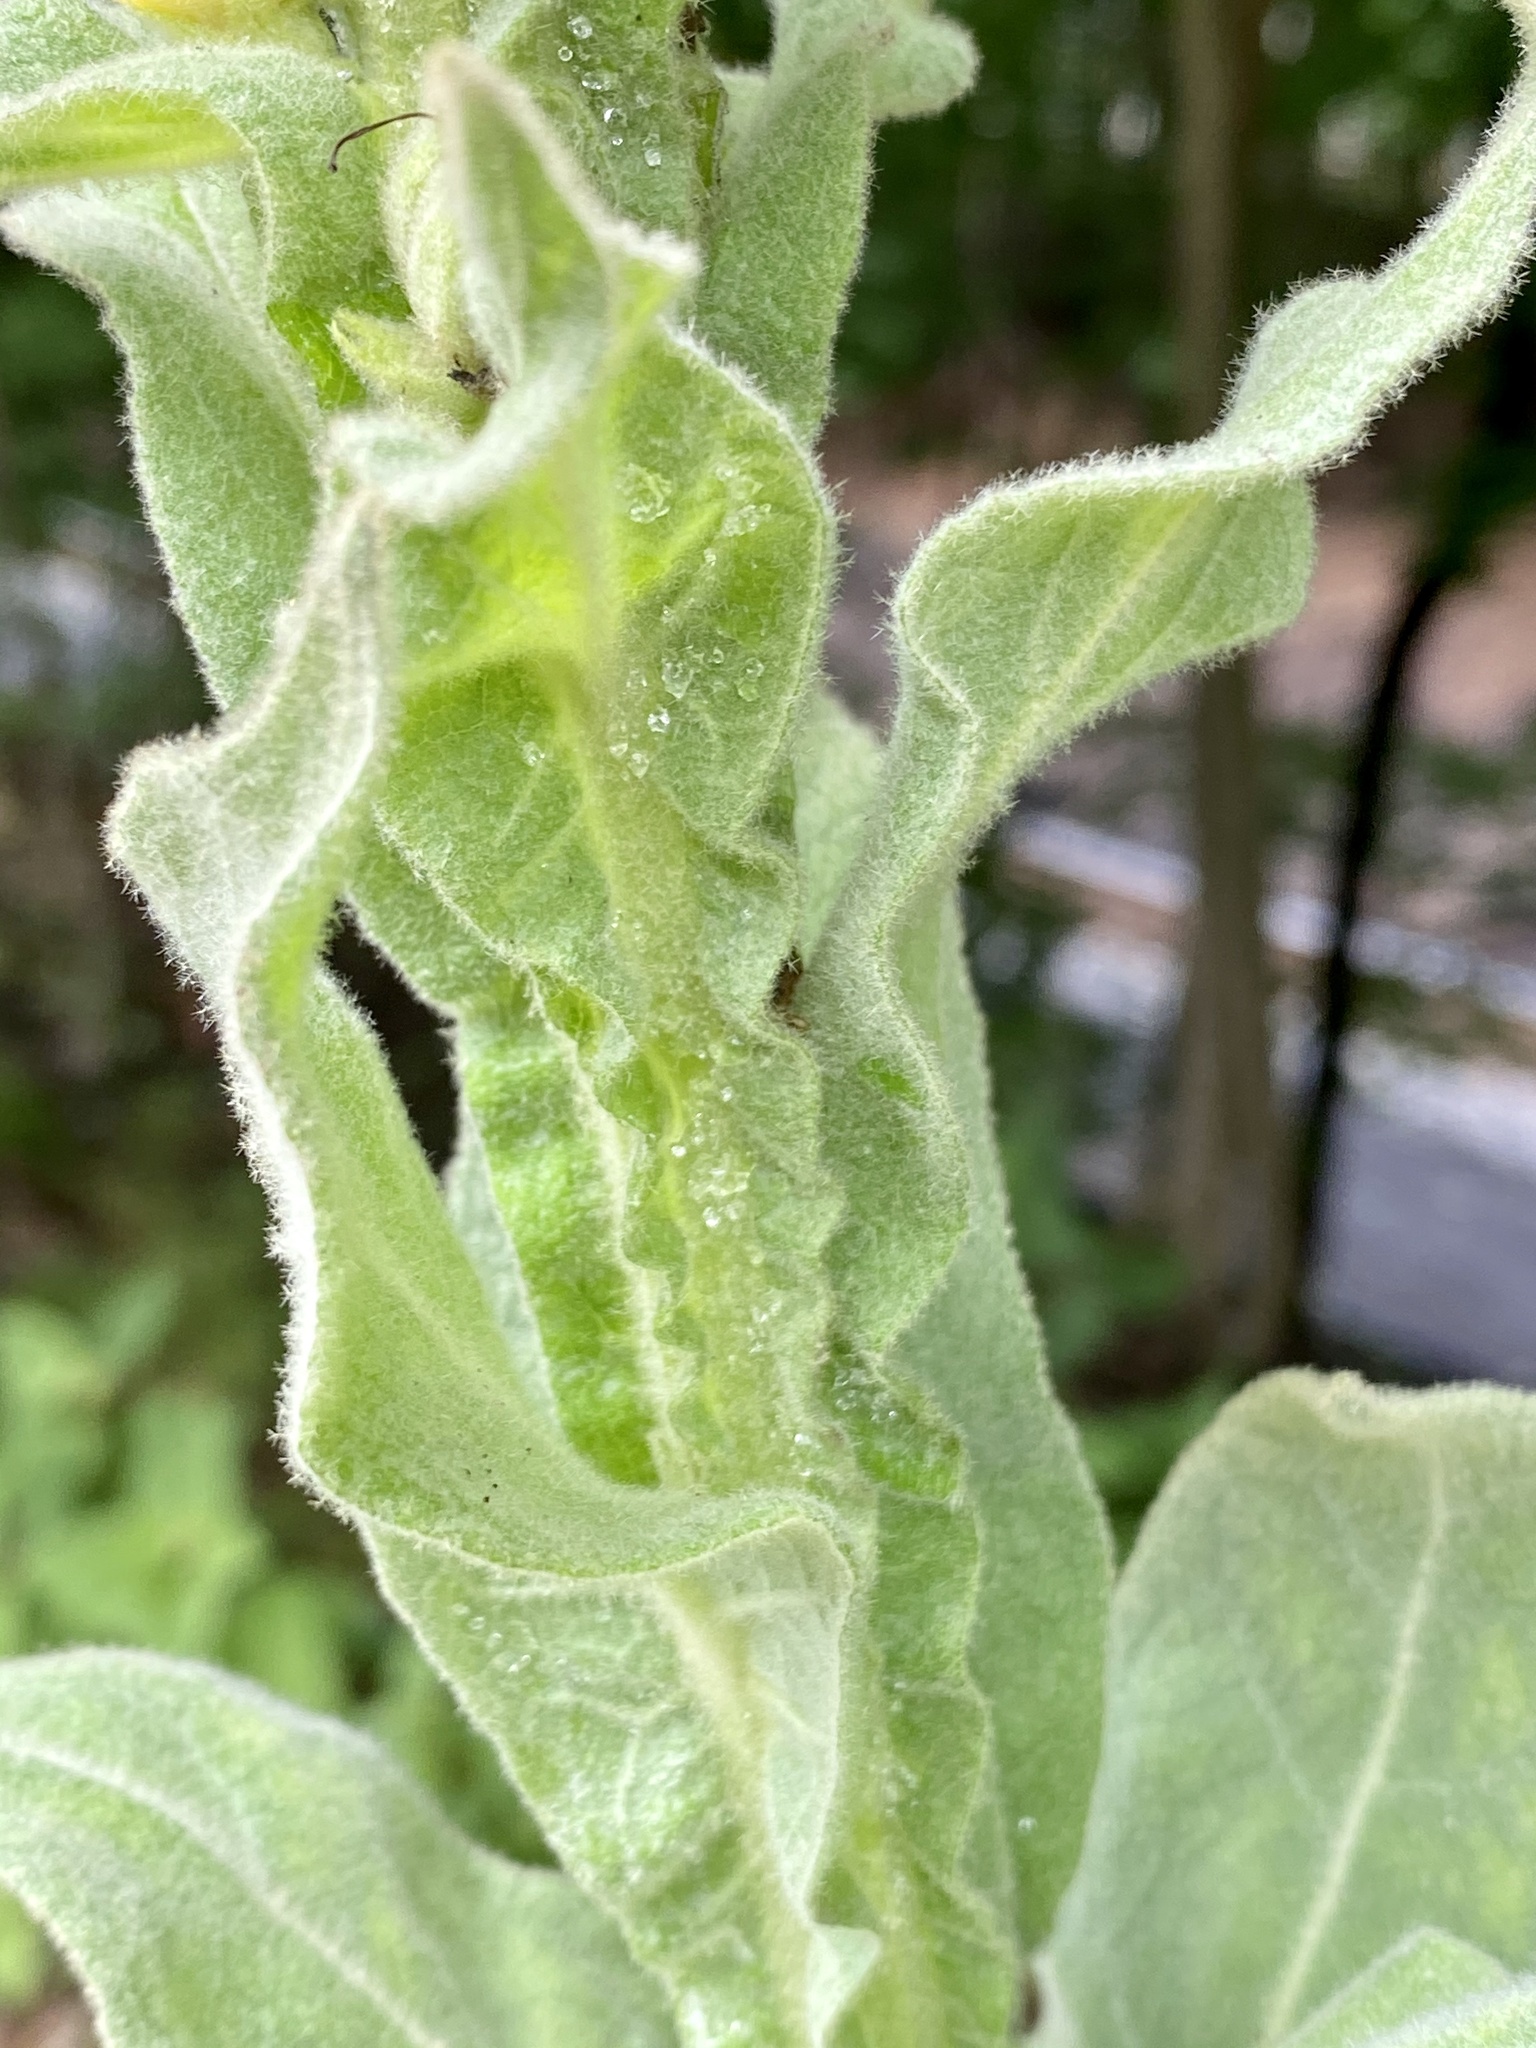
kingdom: Plantae
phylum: Tracheophyta
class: Magnoliopsida
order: Lamiales
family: Scrophulariaceae
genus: Verbascum
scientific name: Verbascum thapsus
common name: Common mullein
